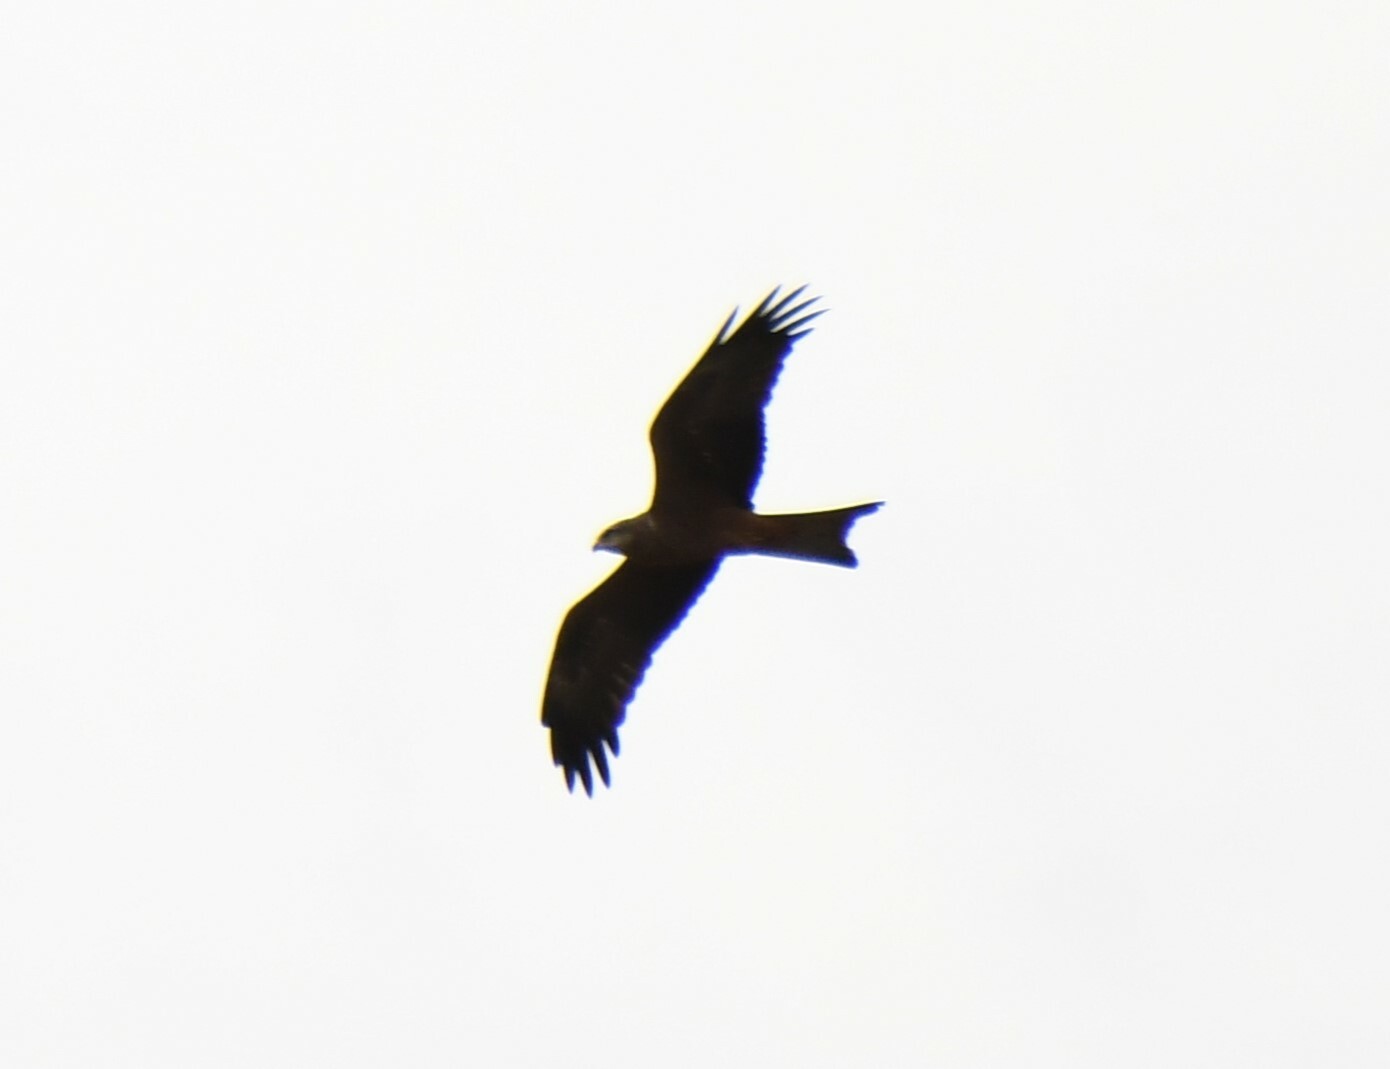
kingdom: Animalia
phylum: Chordata
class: Aves
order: Accipitriformes
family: Accipitridae
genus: Milvus
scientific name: Milvus migrans
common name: Black kite
